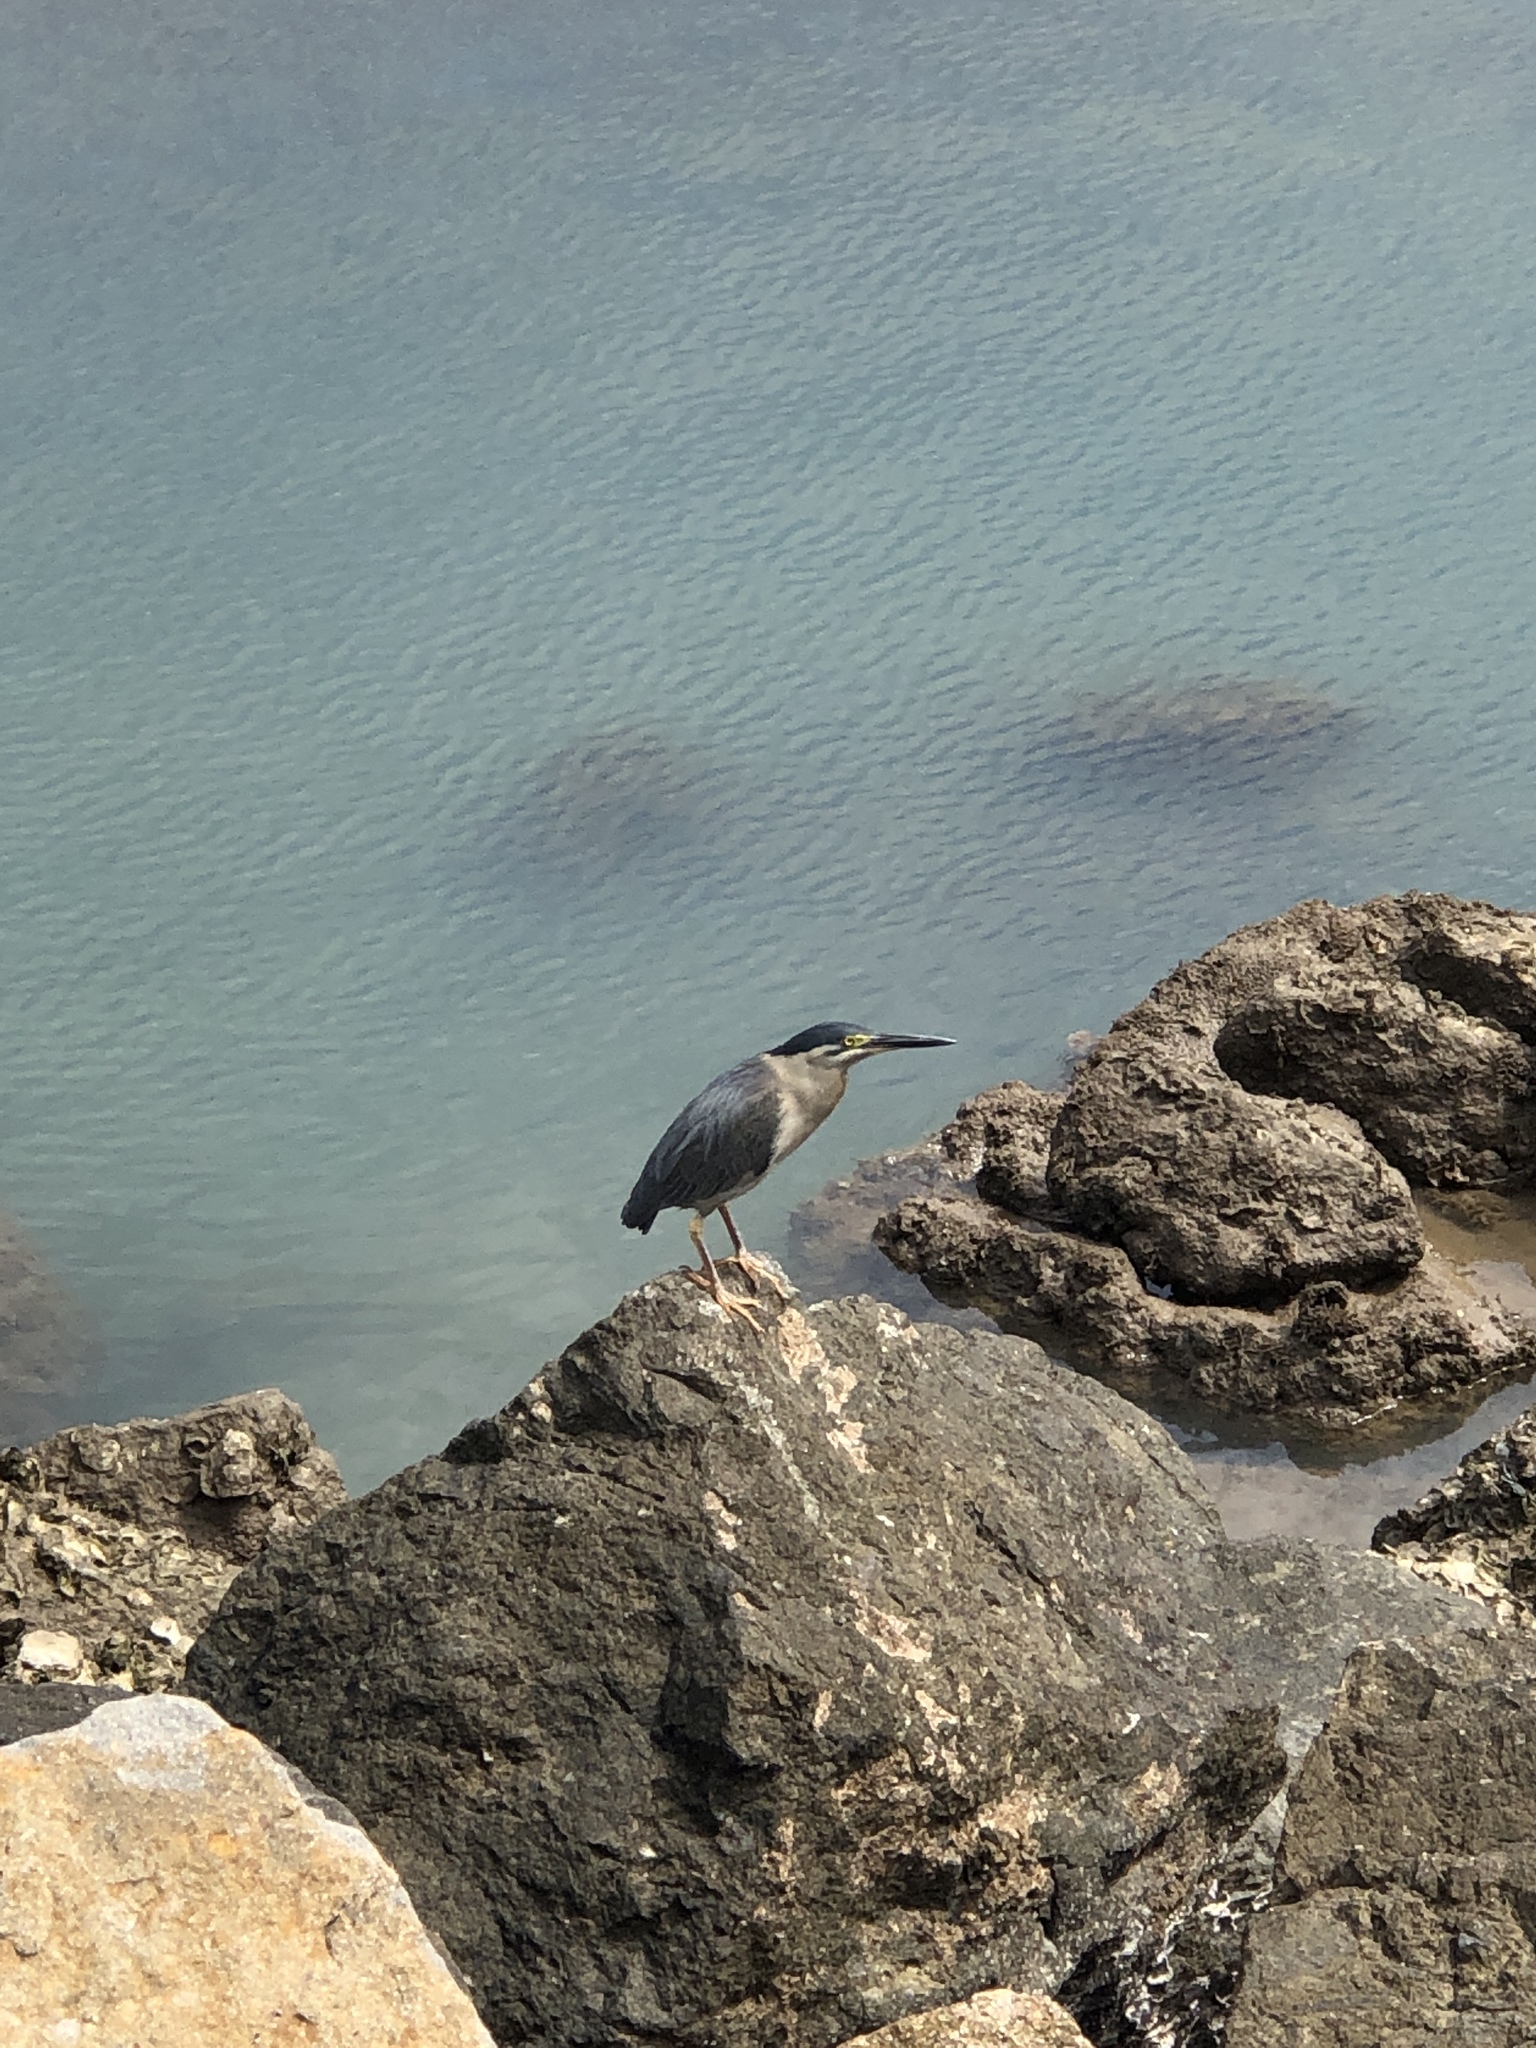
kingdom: Animalia
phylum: Chordata
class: Aves
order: Pelecaniformes
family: Ardeidae
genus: Butorides
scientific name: Butorides striata
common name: Striated heron
